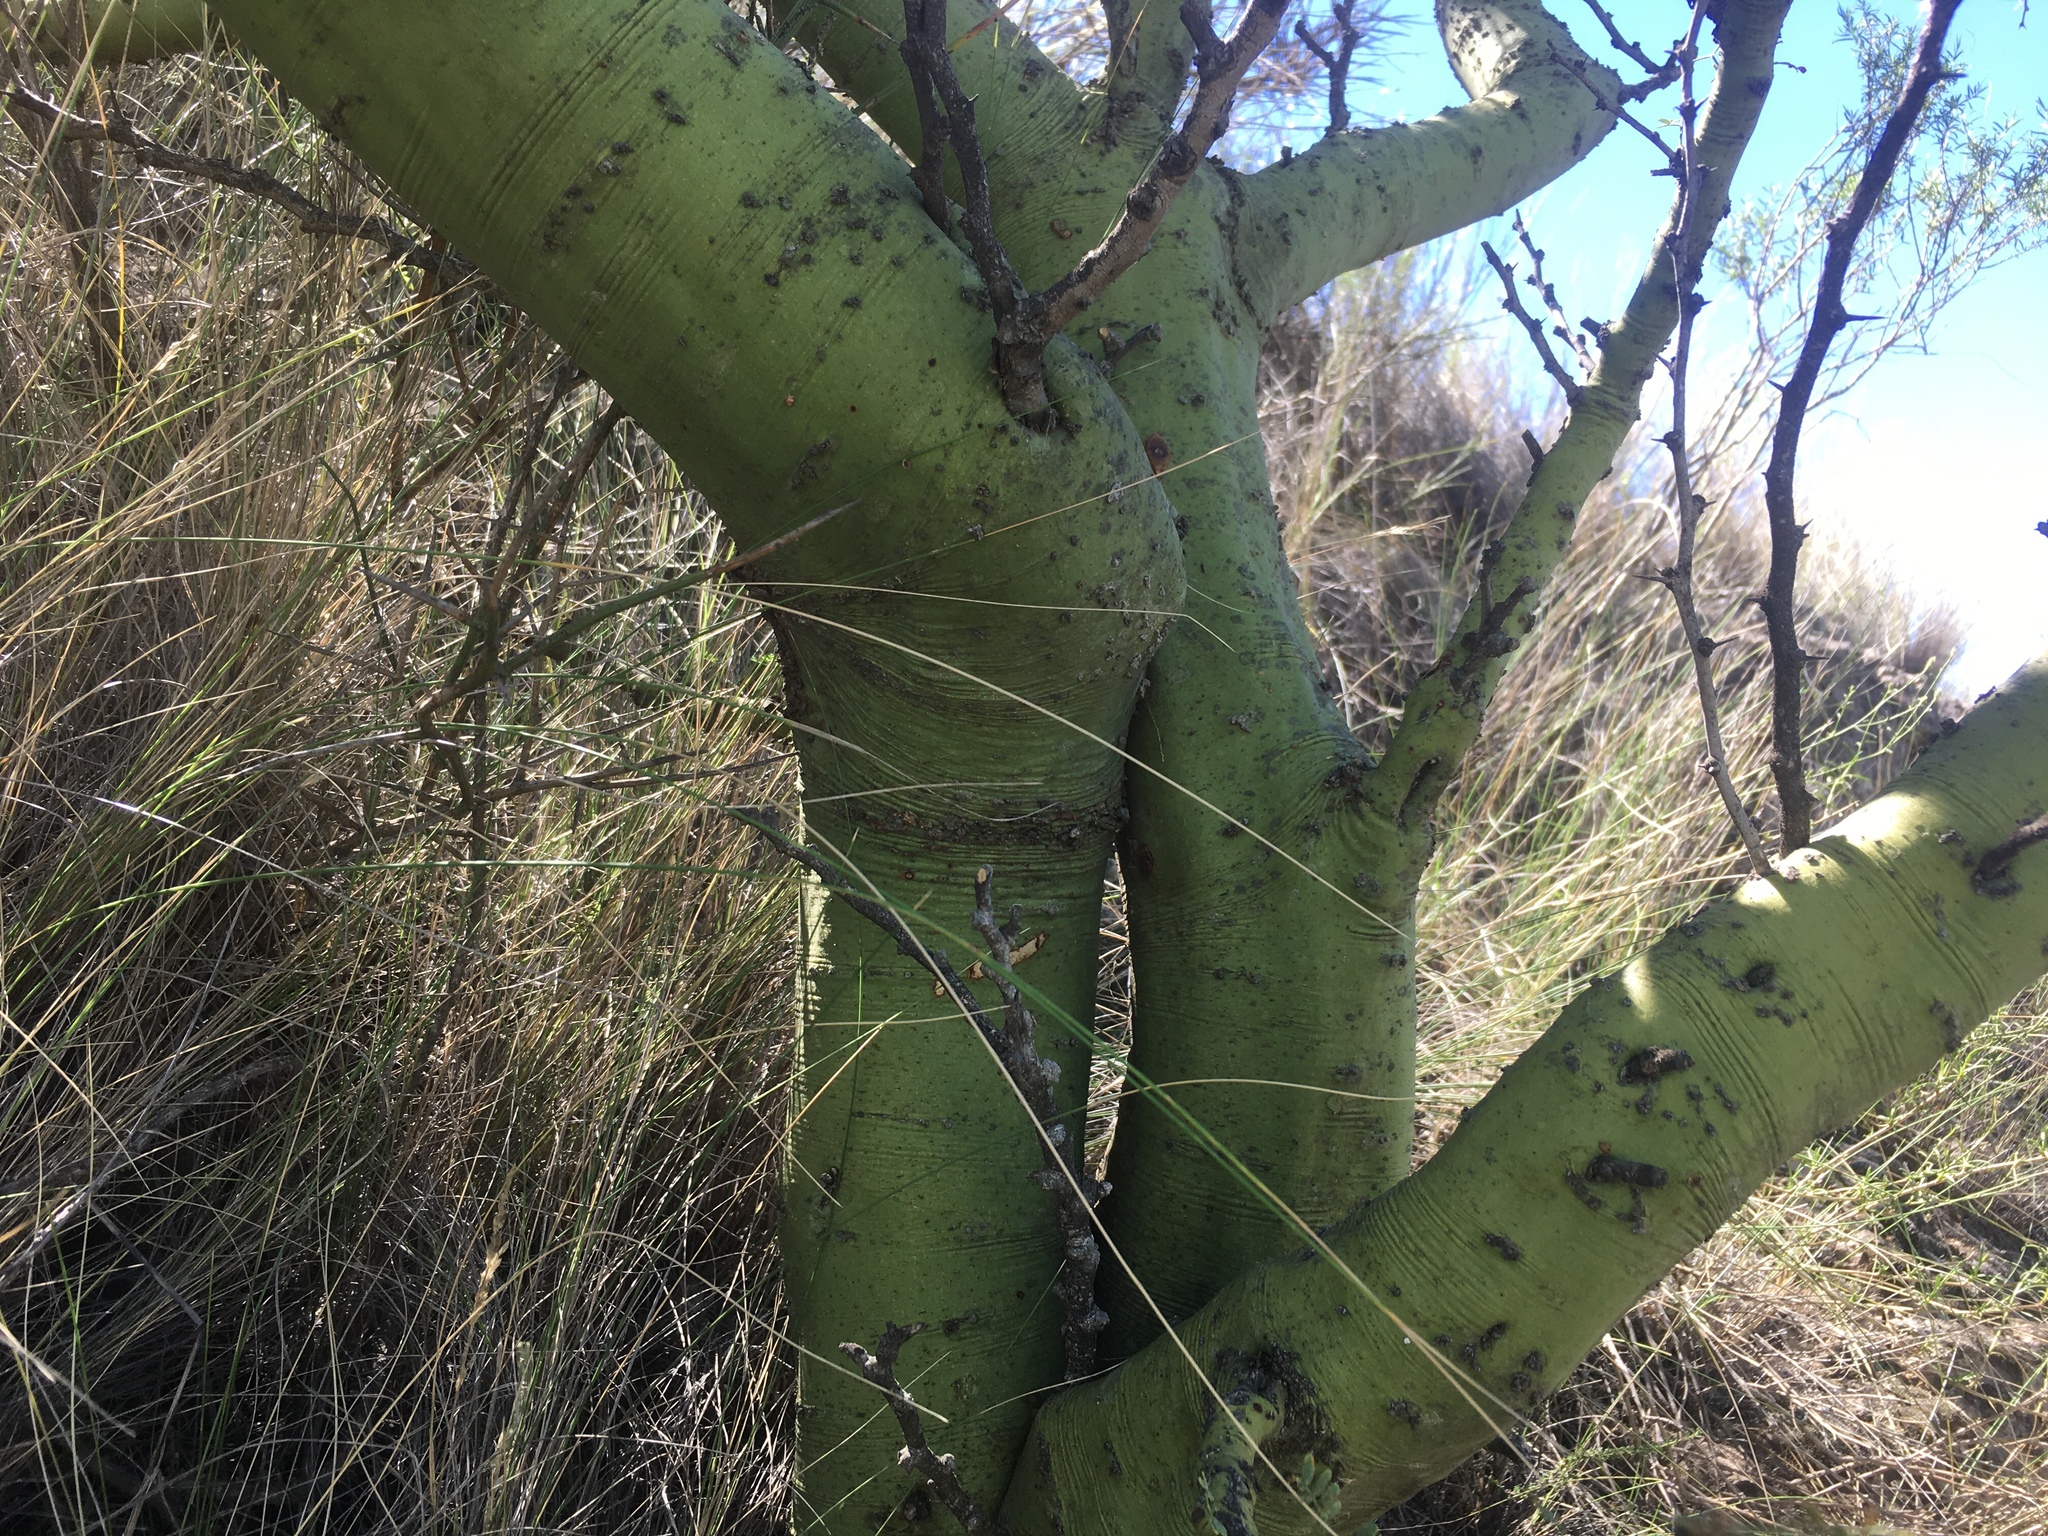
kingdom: Plantae
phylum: Tracheophyta
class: Magnoliopsida
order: Fabales
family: Fabaceae
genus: Parkinsonia
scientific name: Parkinsonia praecox
